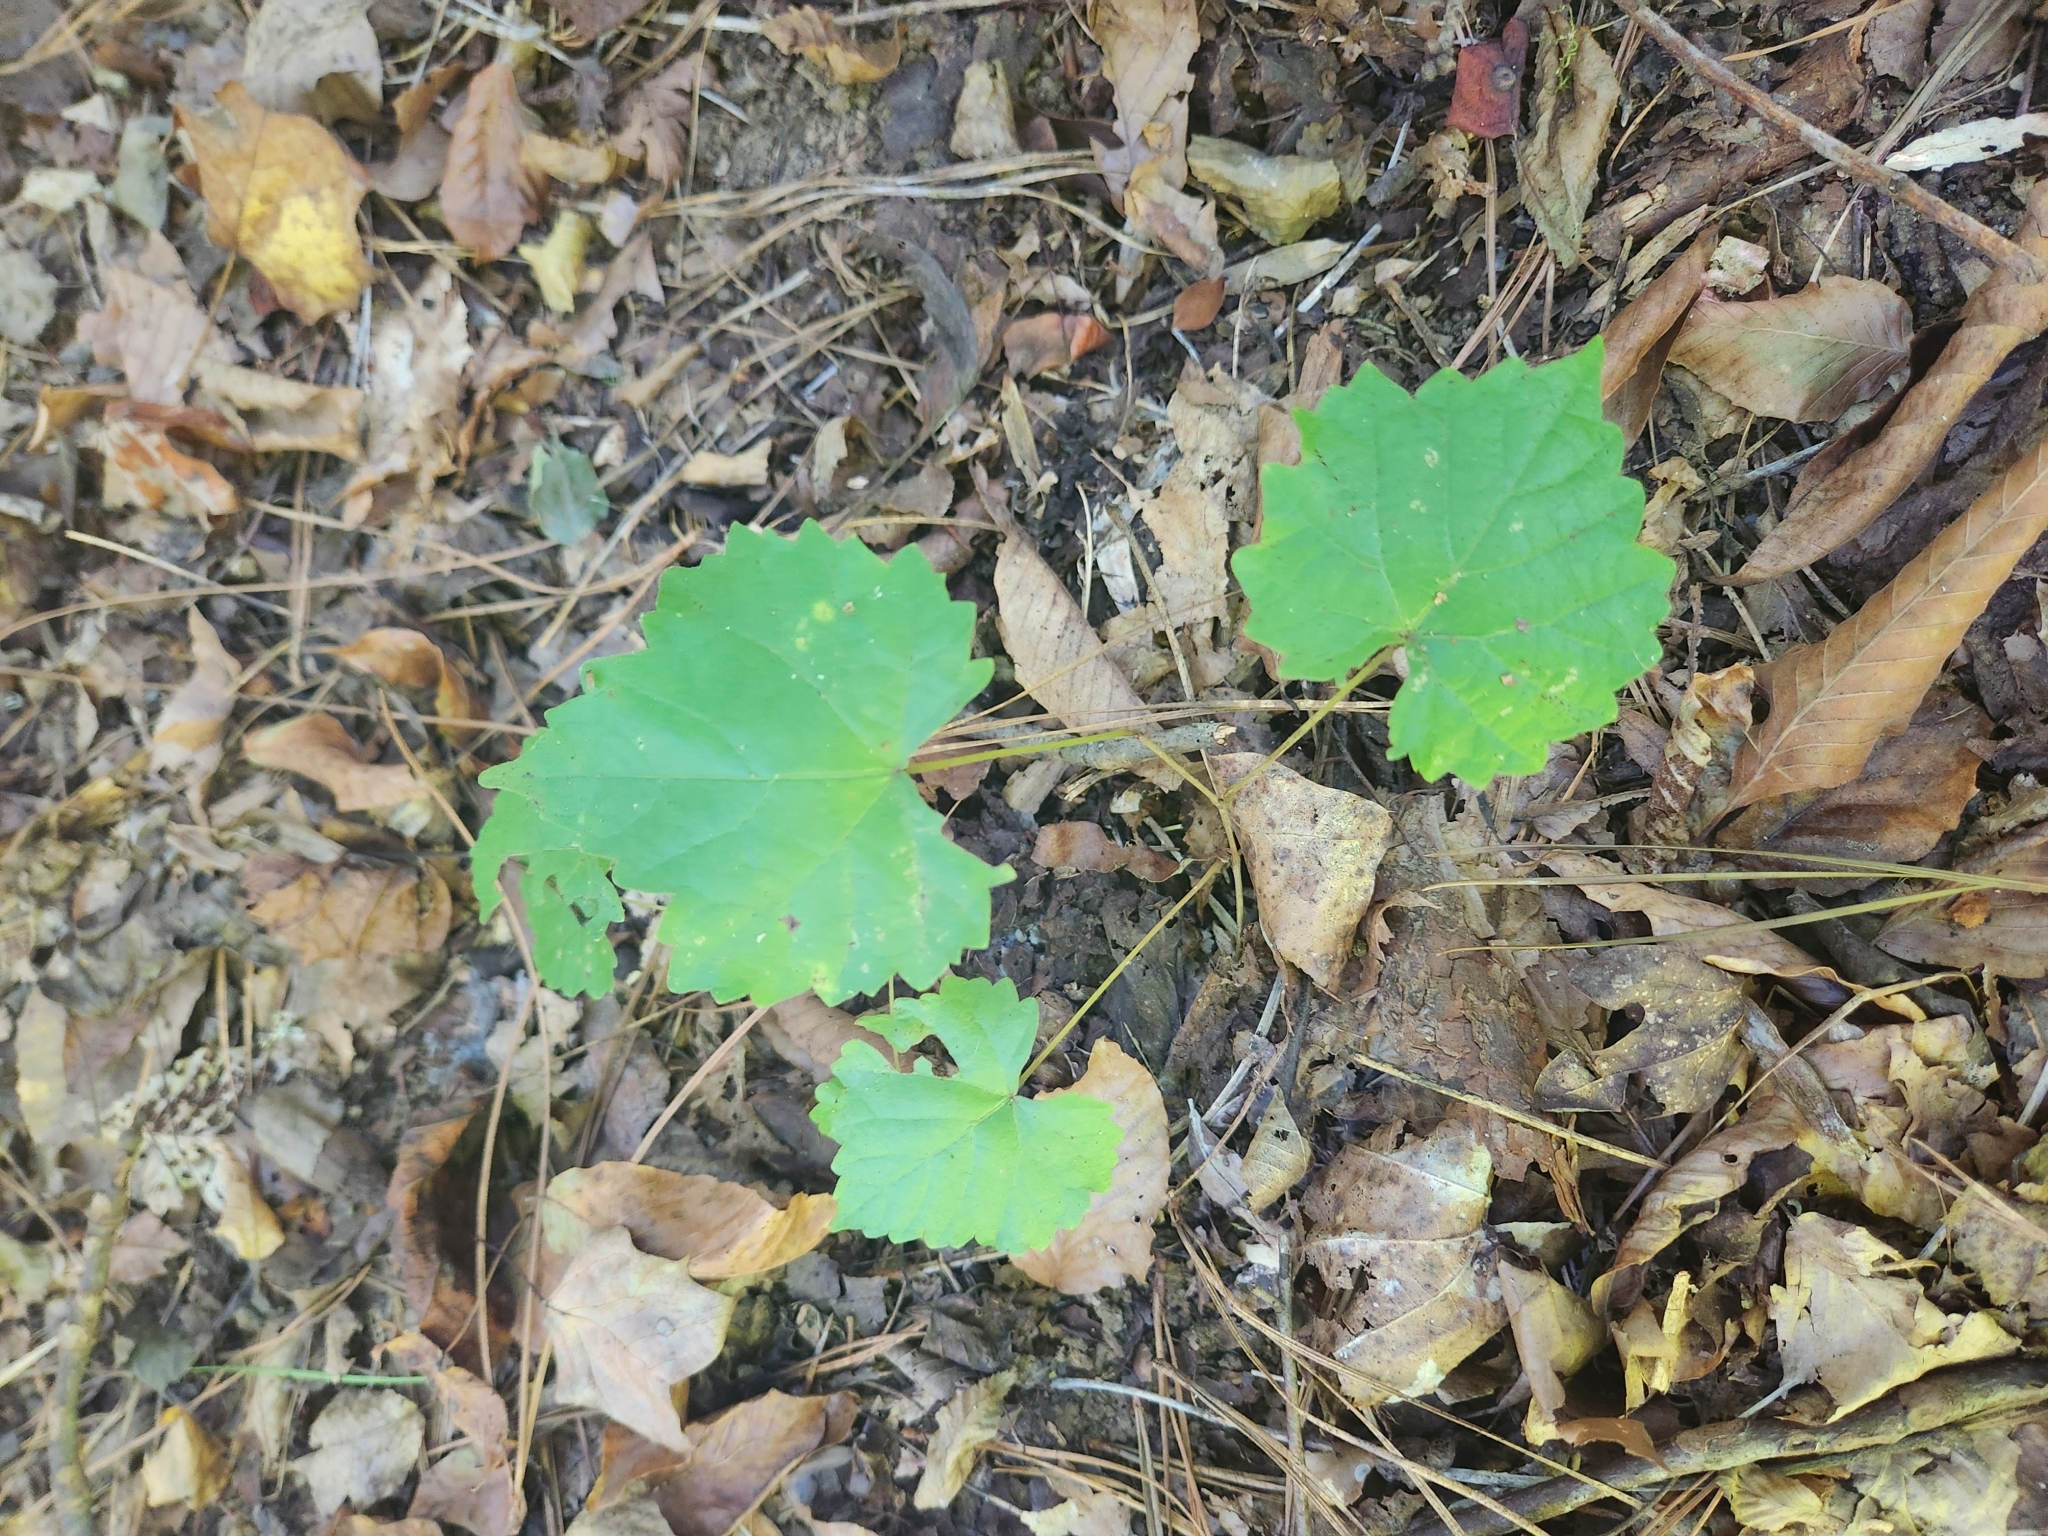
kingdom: Plantae
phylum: Tracheophyta
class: Magnoliopsida
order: Vitales
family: Vitaceae
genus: Vitis
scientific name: Vitis rotundifolia
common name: Muscadine grape
